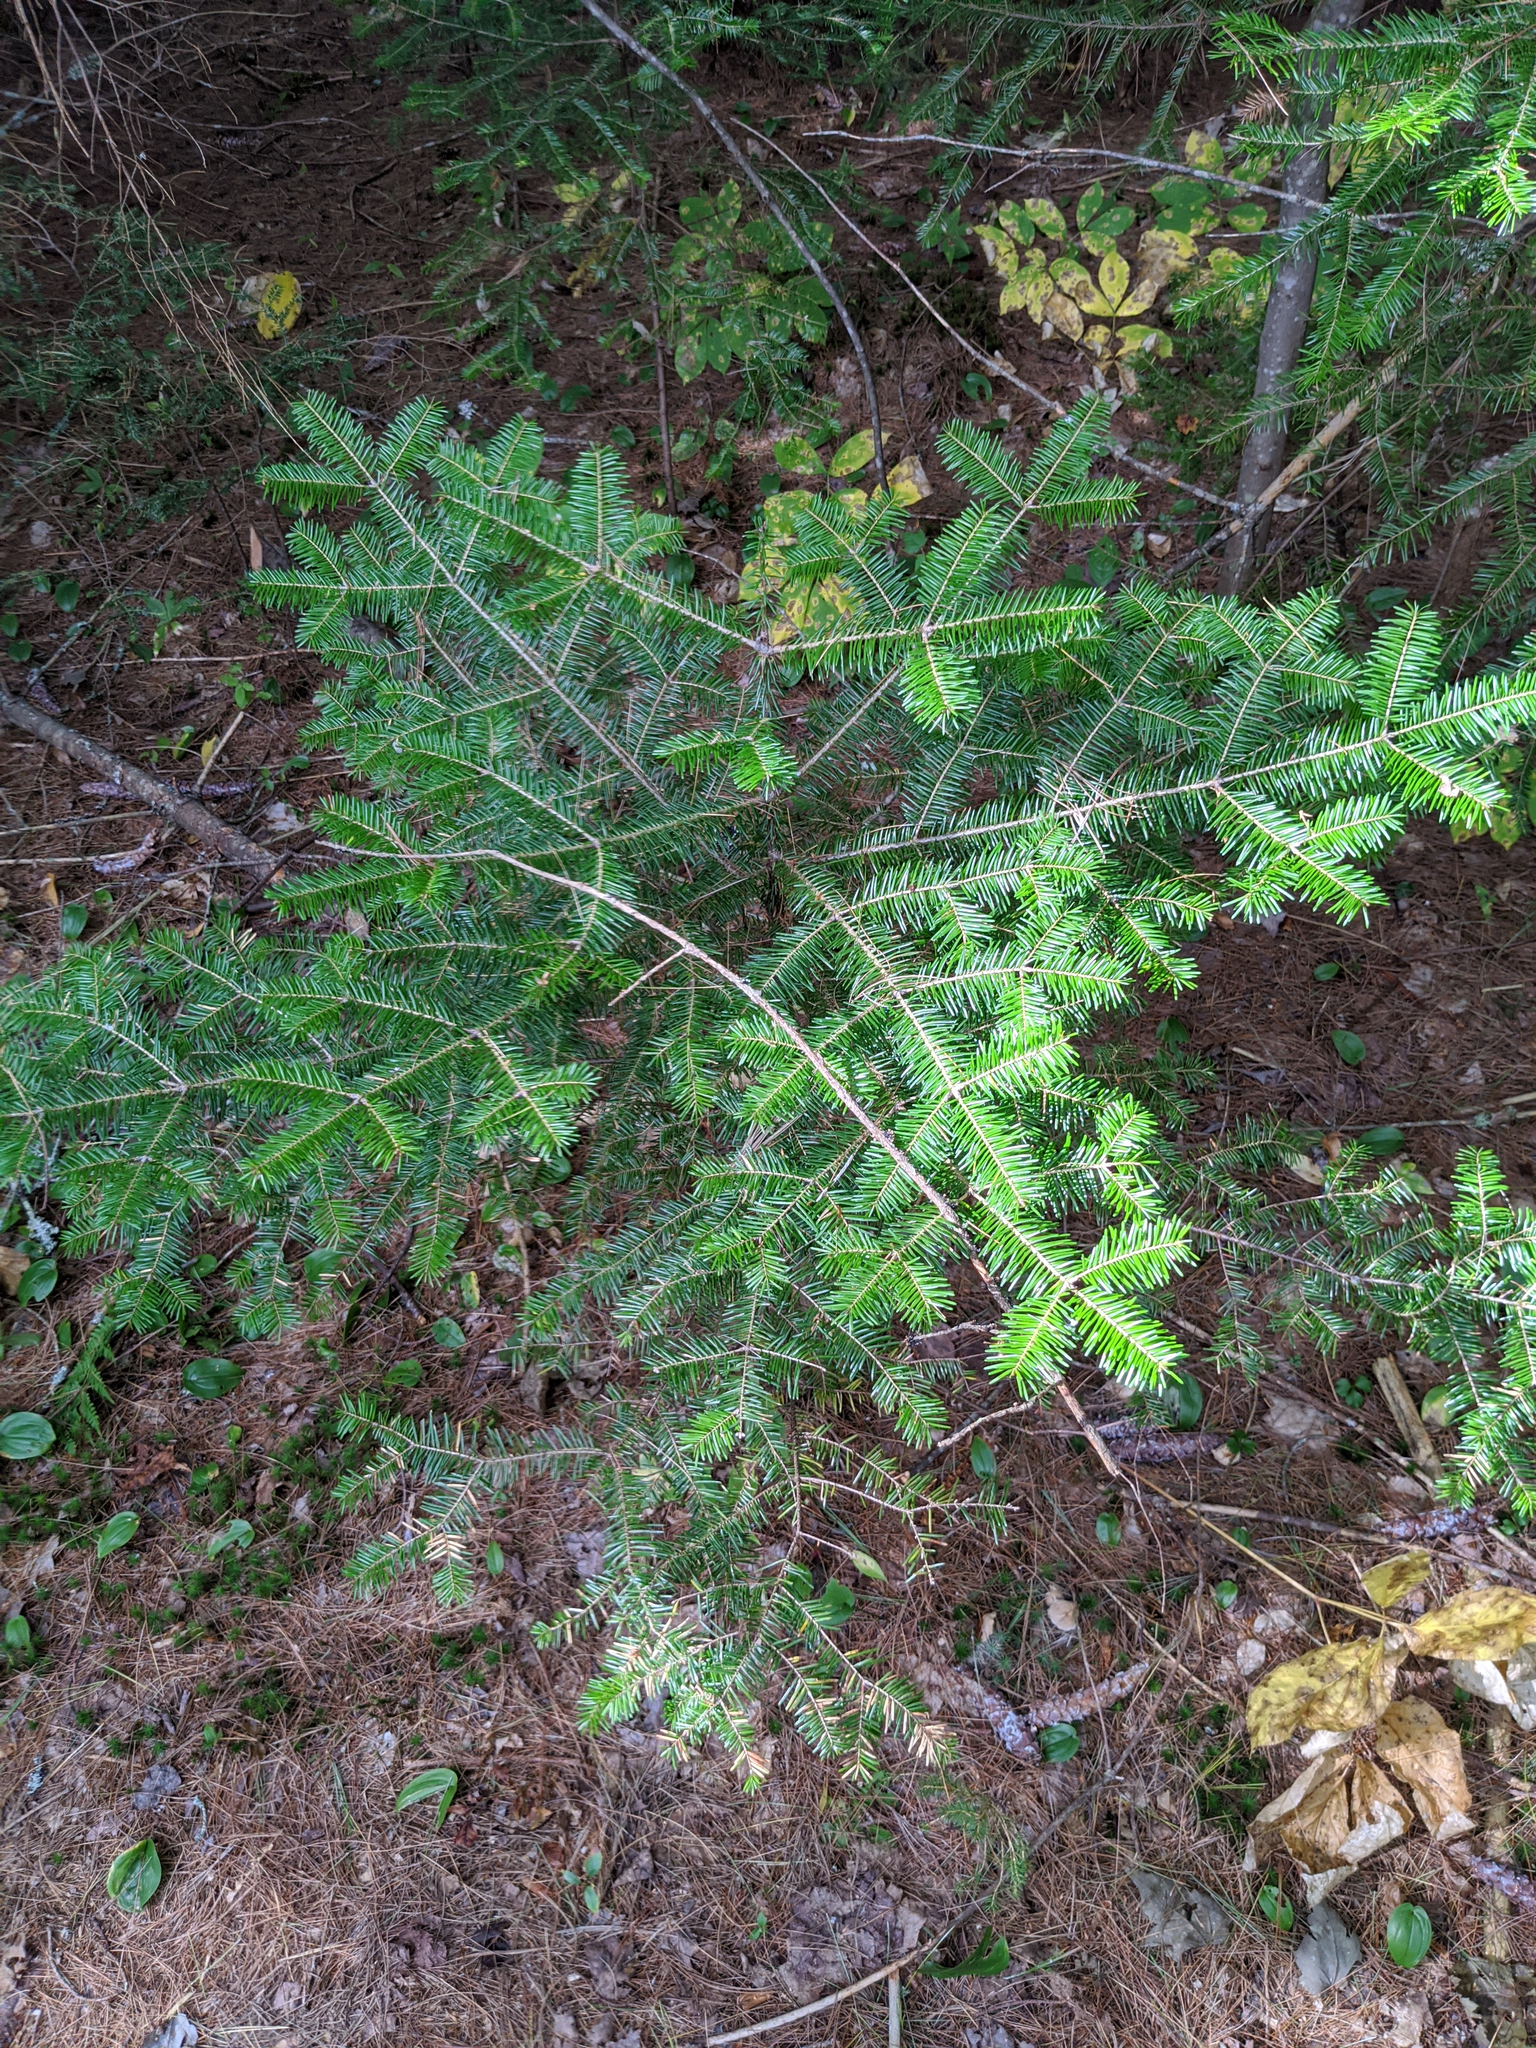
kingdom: Plantae
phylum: Tracheophyta
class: Pinopsida
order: Pinales
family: Pinaceae
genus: Abies
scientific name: Abies balsamea
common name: Balsam fir
